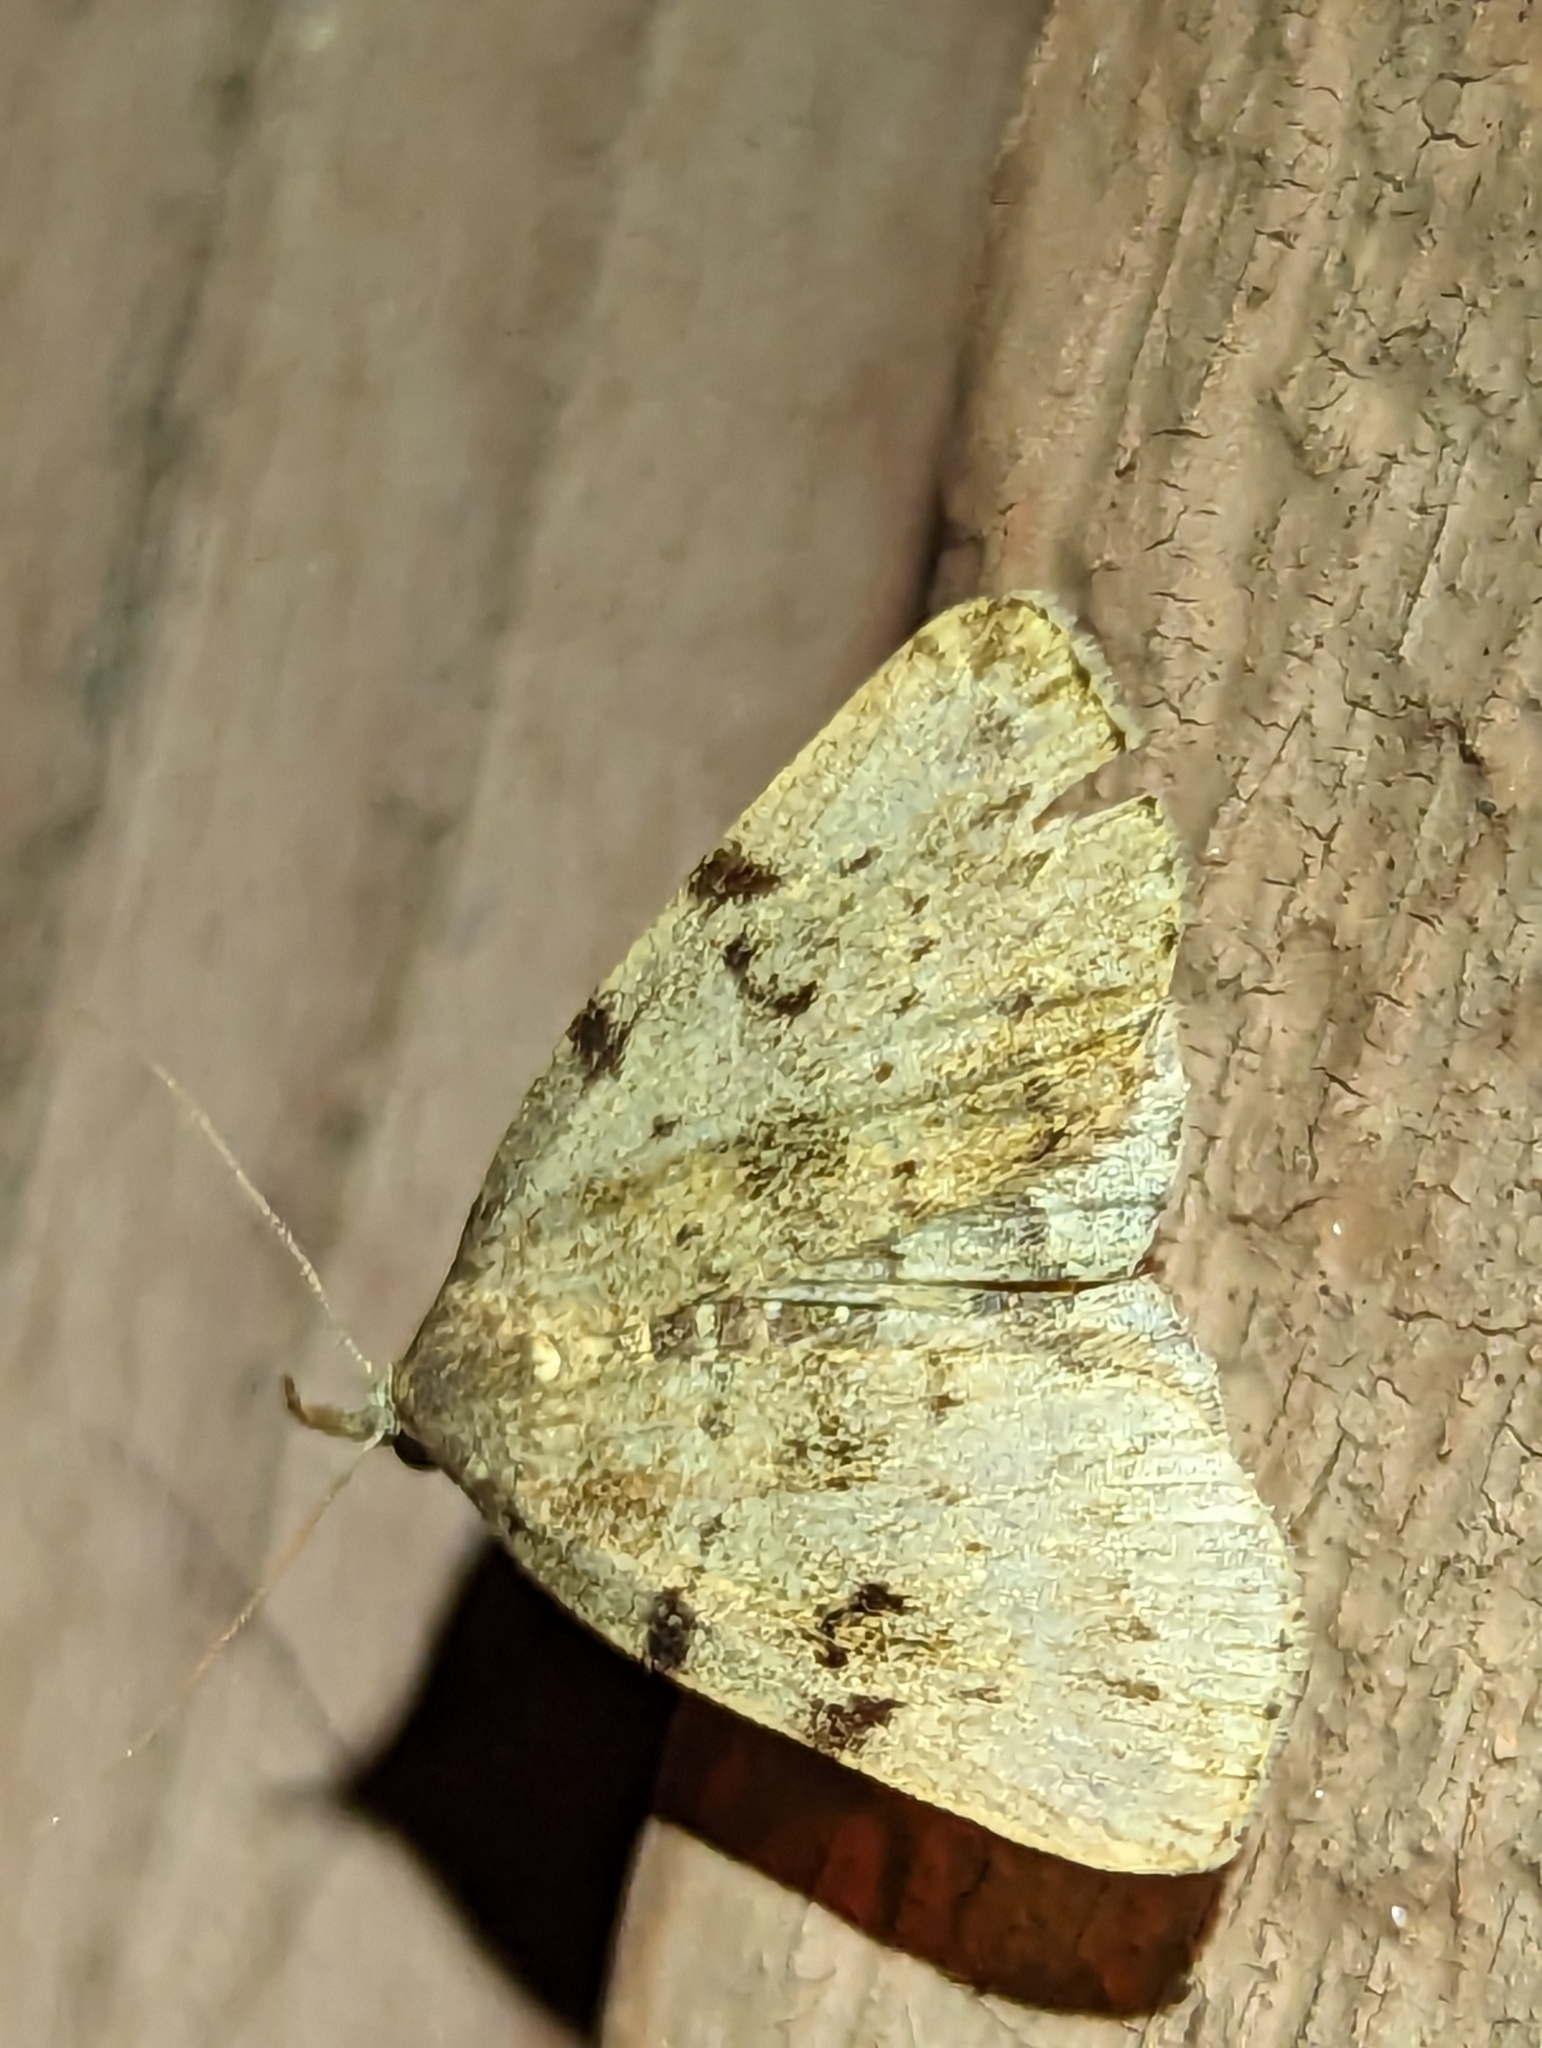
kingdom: Animalia
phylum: Arthropoda
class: Insecta
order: Lepidoptera
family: Erebidae
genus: Zanclognatha
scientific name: Zanclognatha lituralis
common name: Lettered fan-foot
